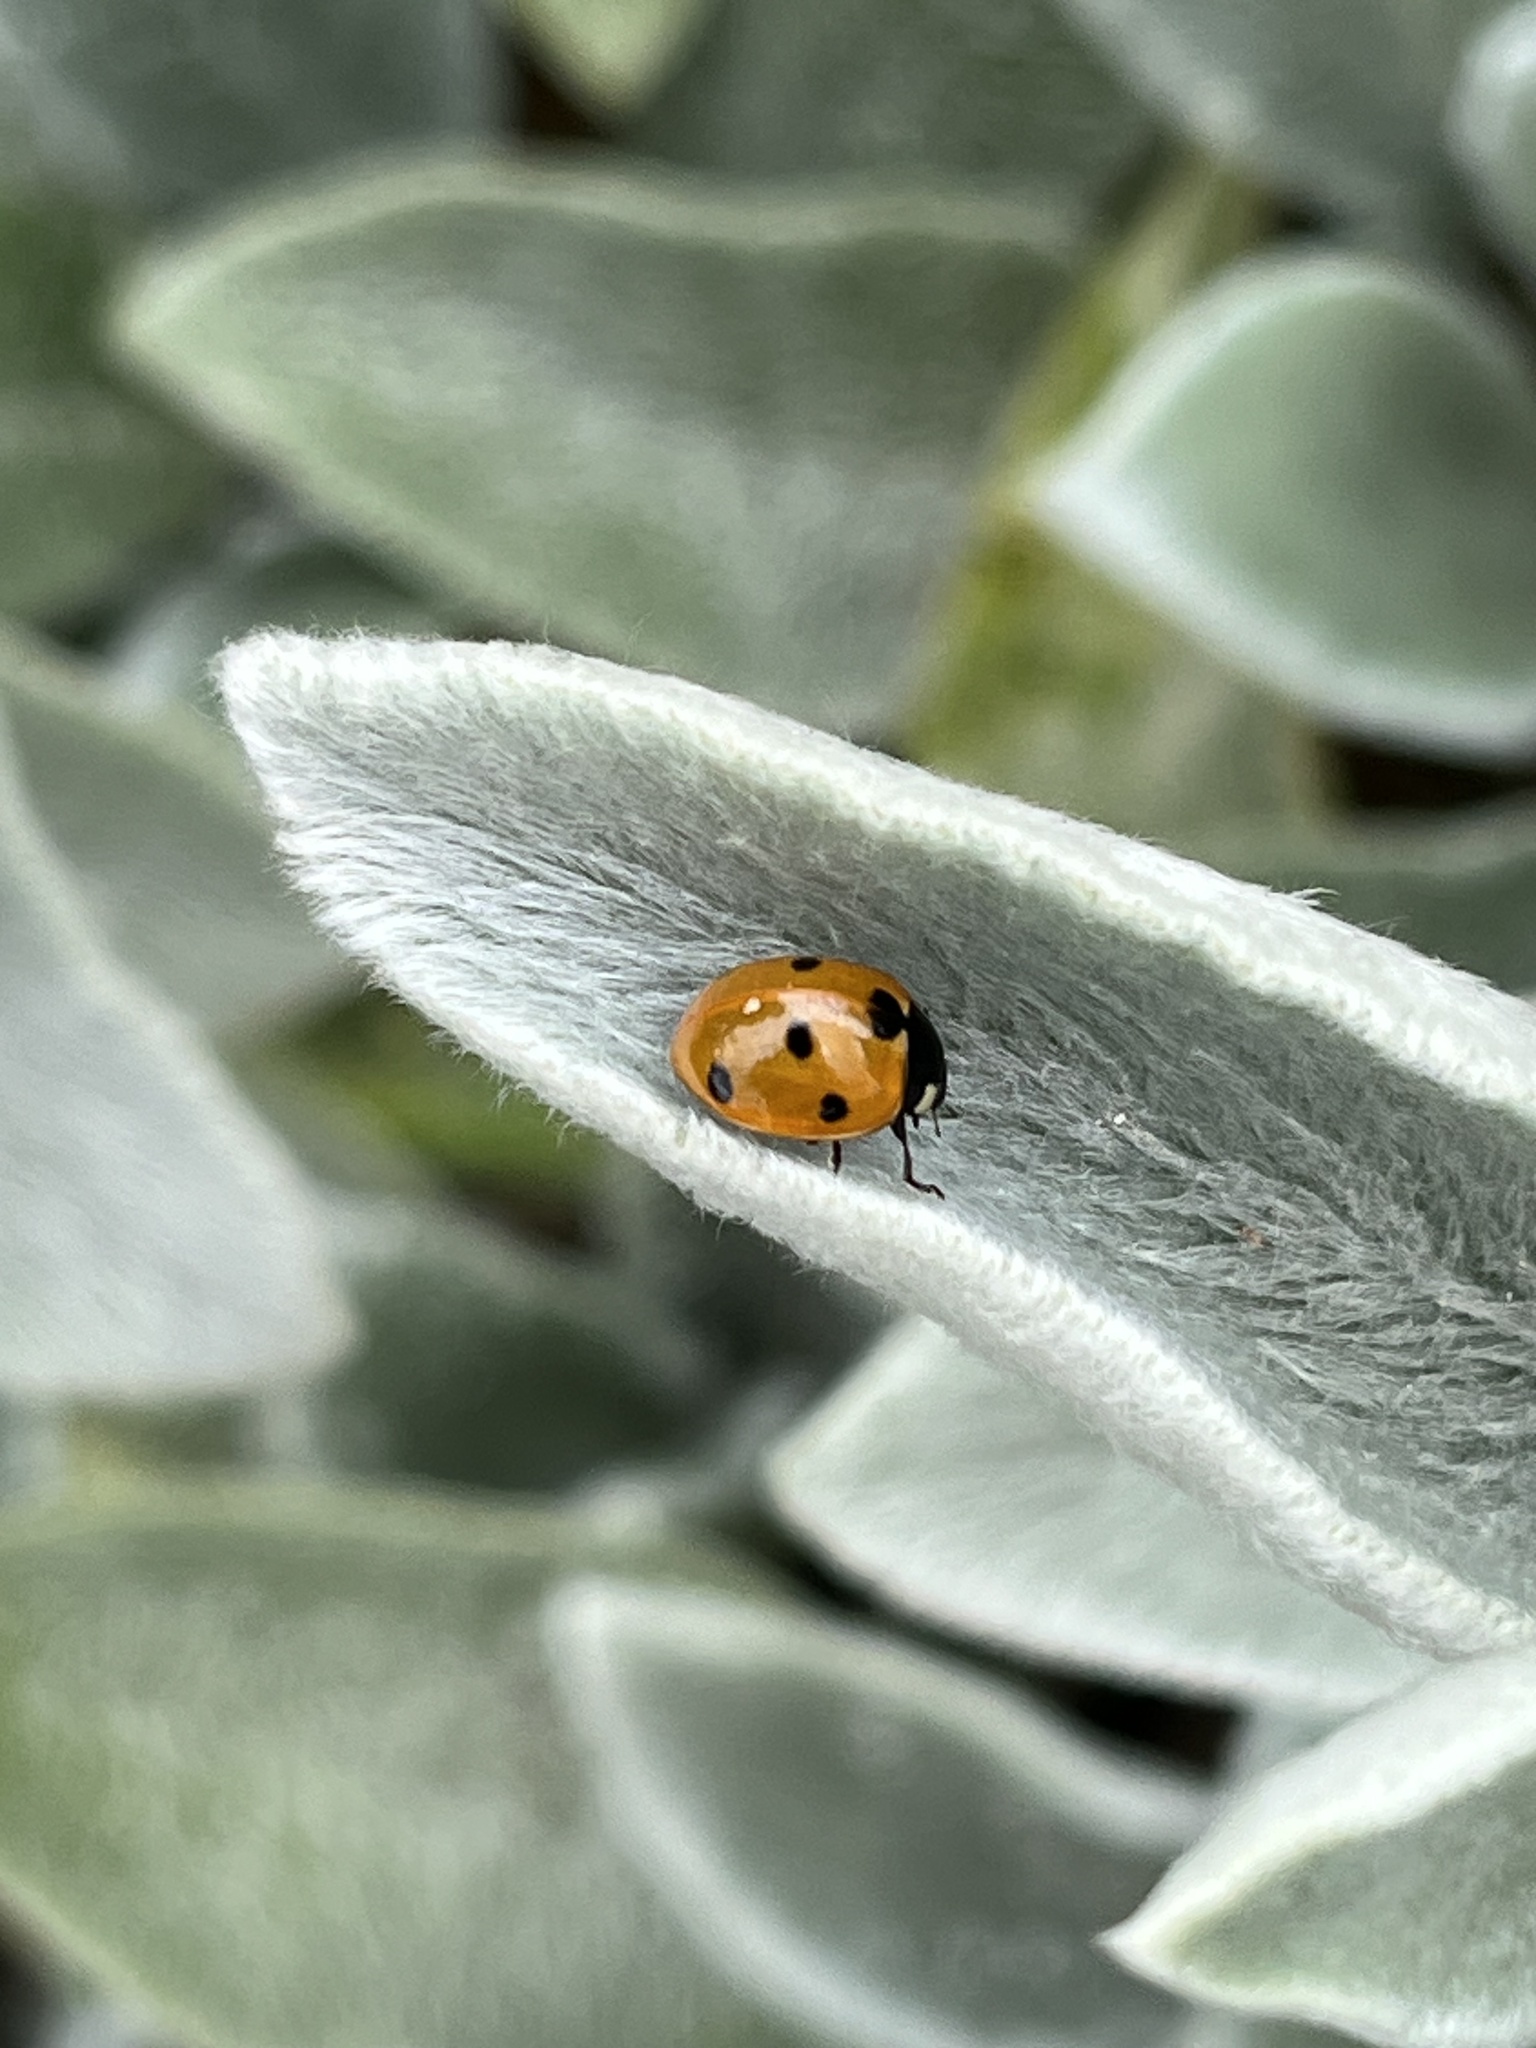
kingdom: Animalia
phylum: Arthropoda
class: Insecta
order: Coleoptera
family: Coccinellidae
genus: Coccinella
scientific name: Coccinella septempunctata
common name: Sevenspotted lady beetle
